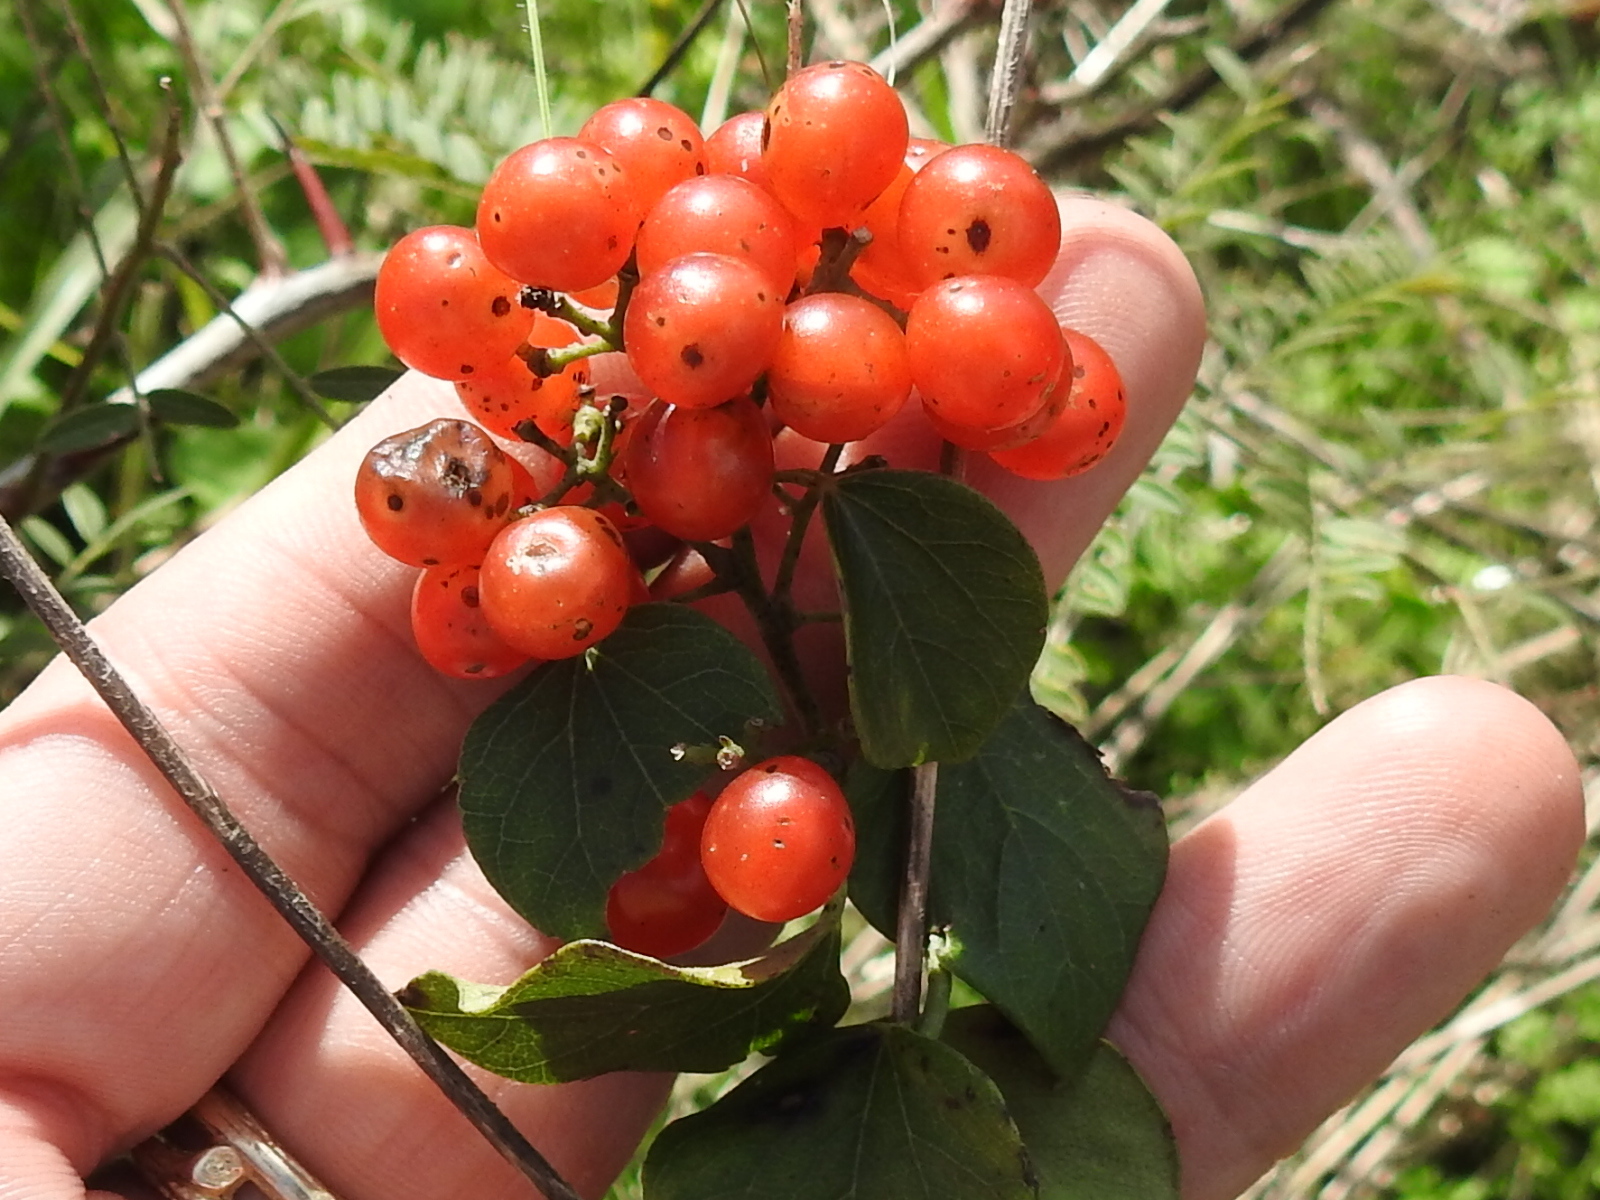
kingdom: Plantae
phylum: Tracheophyta
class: Magnoliopsida
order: Ranunculales
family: Menispermaceae
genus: Cocculus
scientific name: Cocculus carolinus
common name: Carolina moonseed
